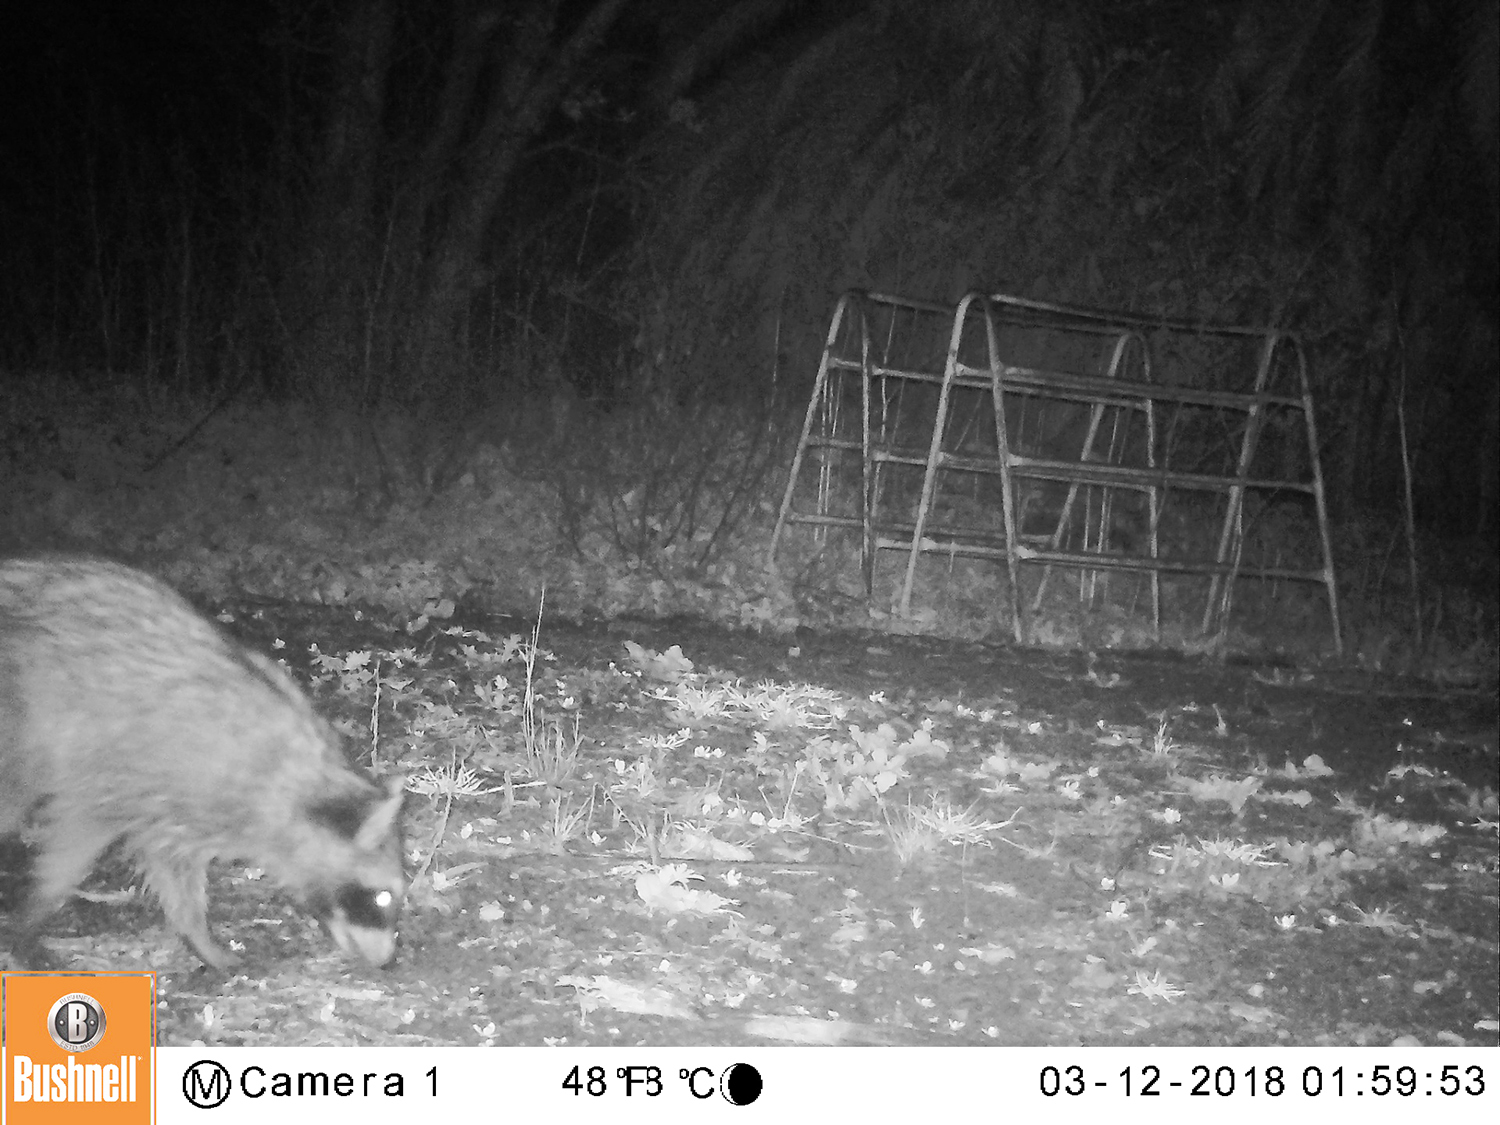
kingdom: Animalia
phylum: Chordata
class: Mammalia
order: Carnivora
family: Procyonidae
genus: Procyon
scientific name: Procyon lotor
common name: Raccoon
